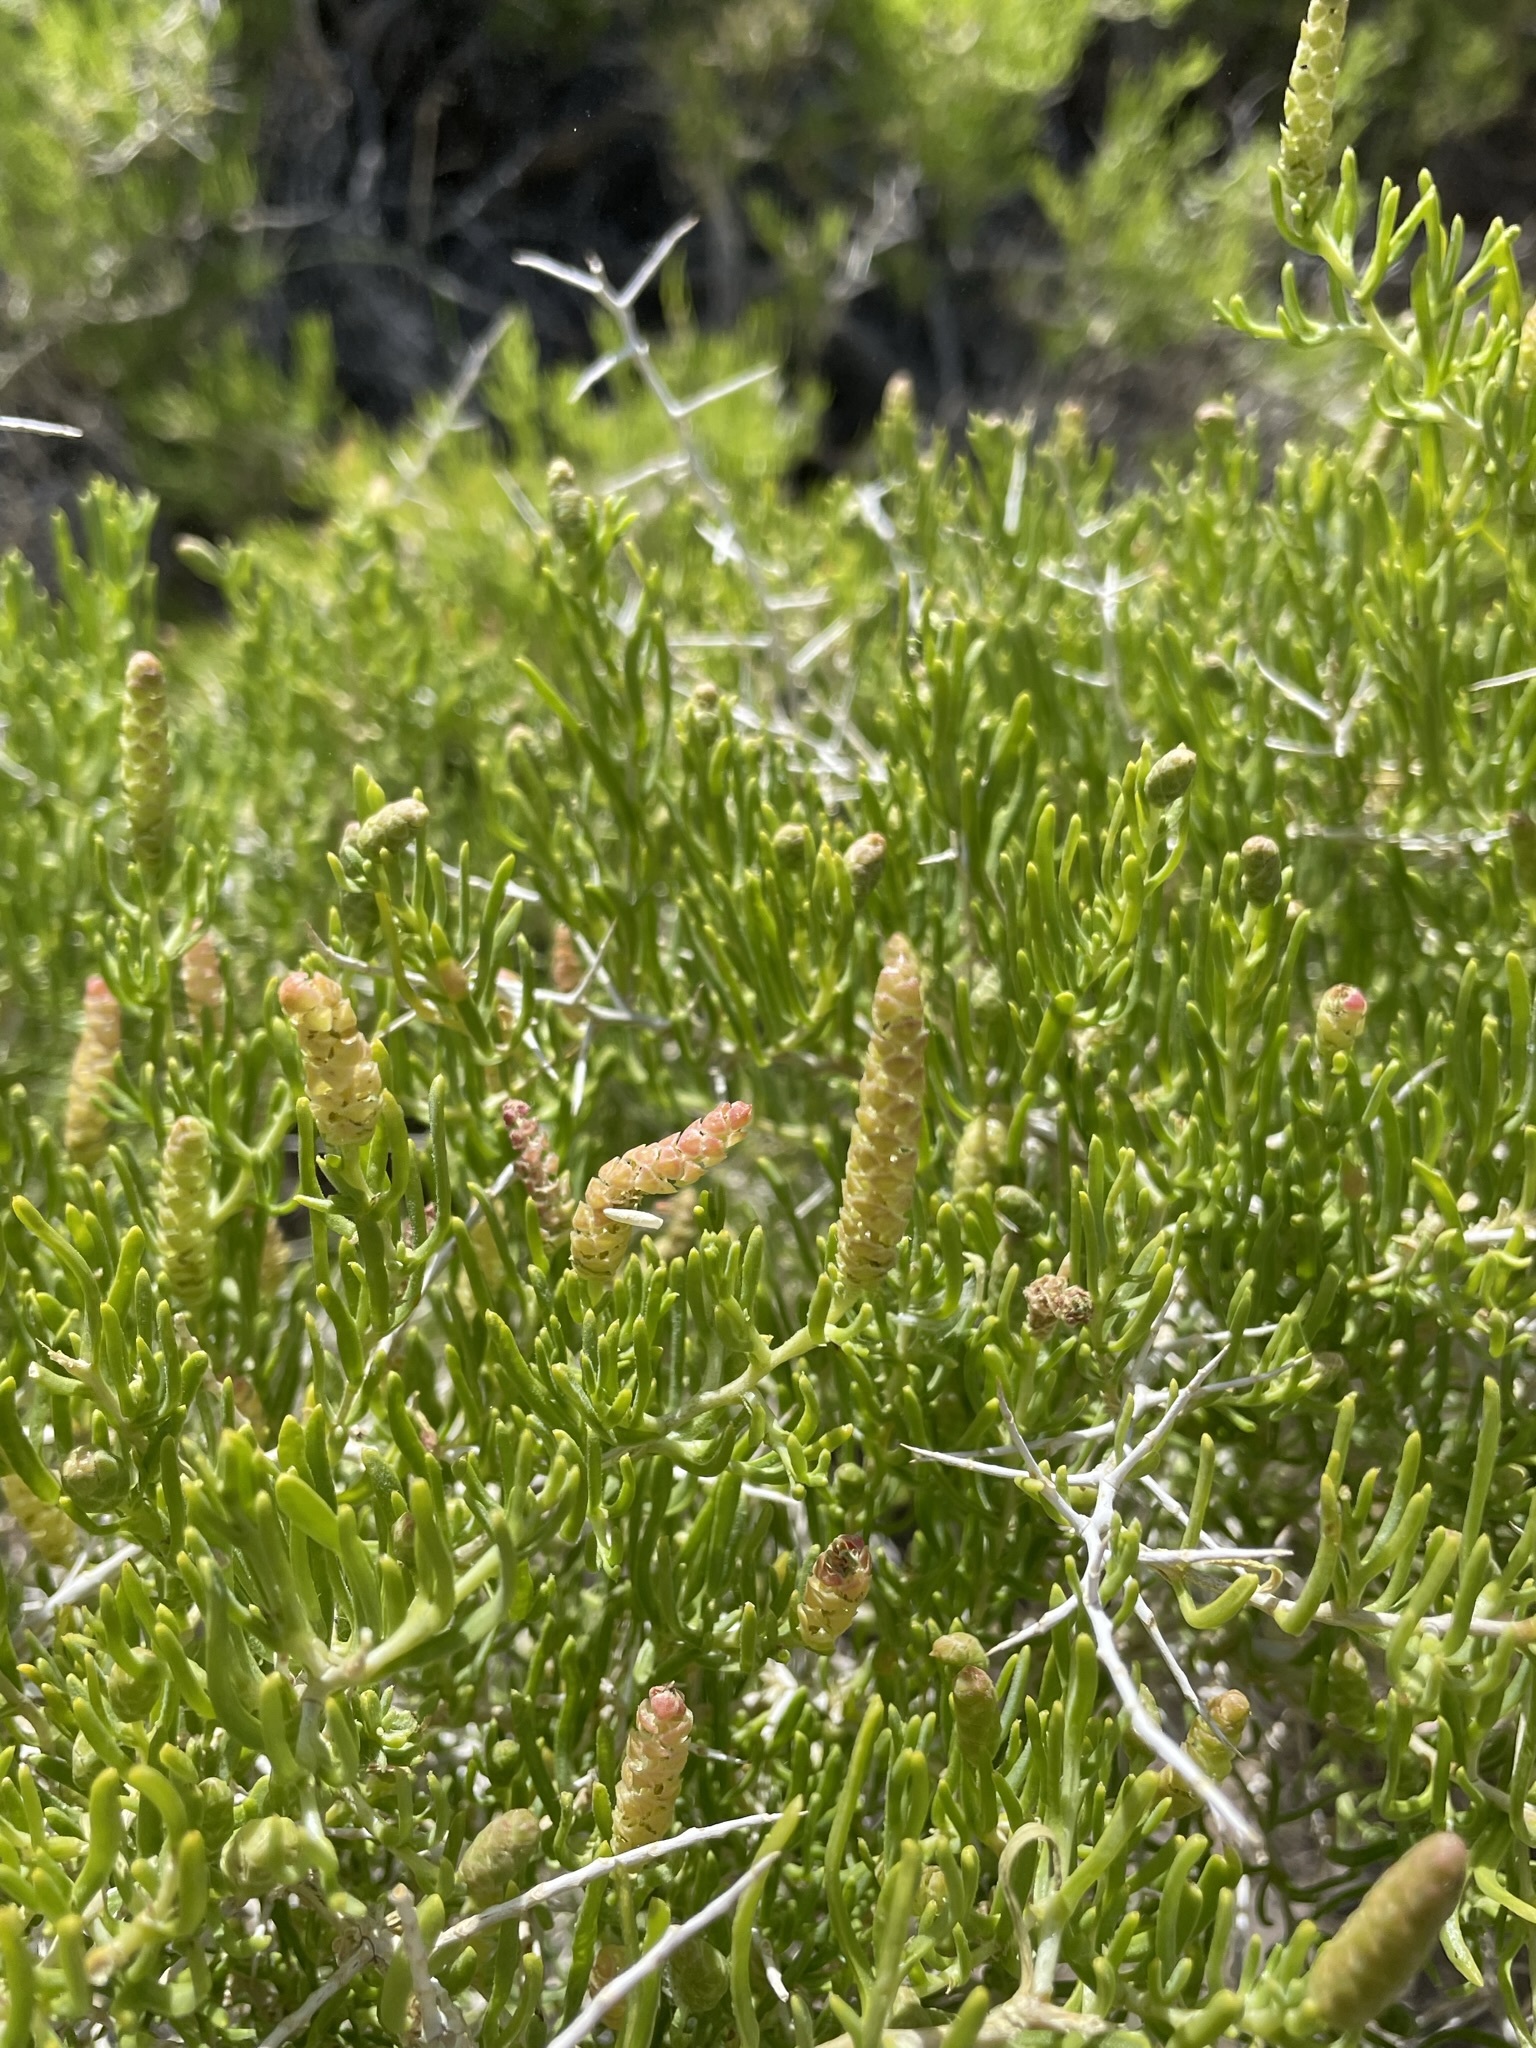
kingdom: Plantae
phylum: Tracheophyta
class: Magnoliopsida
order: Caryophyllales
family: Sarcobataceae
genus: Sarcobatus
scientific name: Sarcobatus vermiculatus
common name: Greasewood
